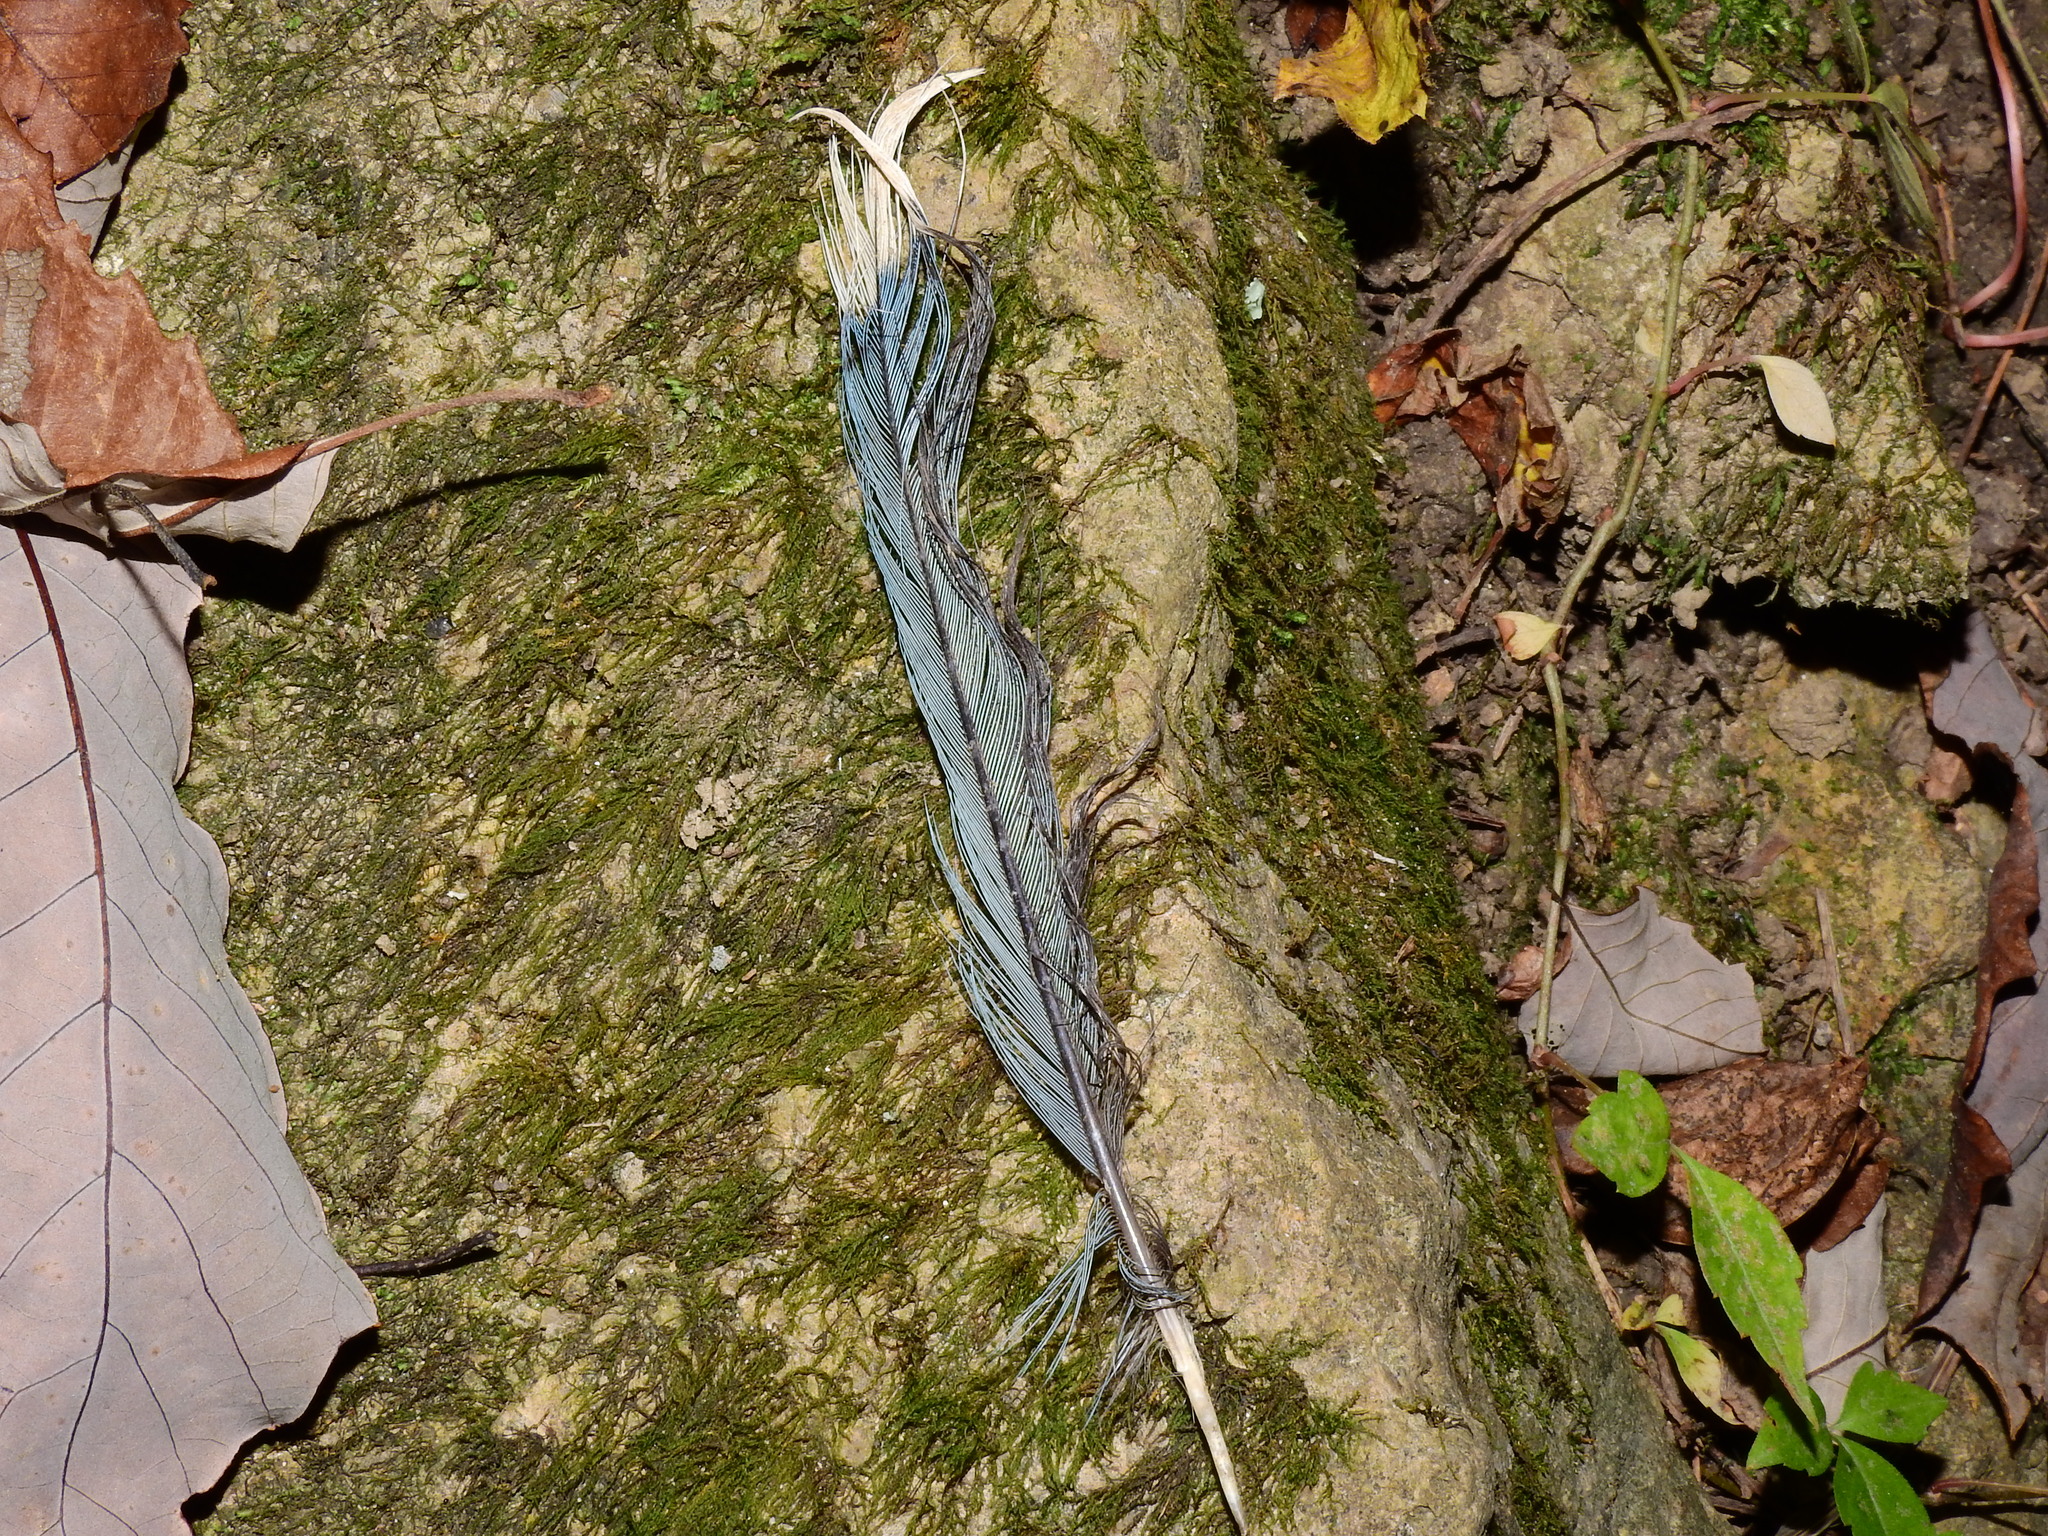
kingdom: Animalia
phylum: Chordata
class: Aves
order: Passeriformes
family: Corvidae
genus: Cyanocitta
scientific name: Cyanocitta cristata
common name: Blue jay
